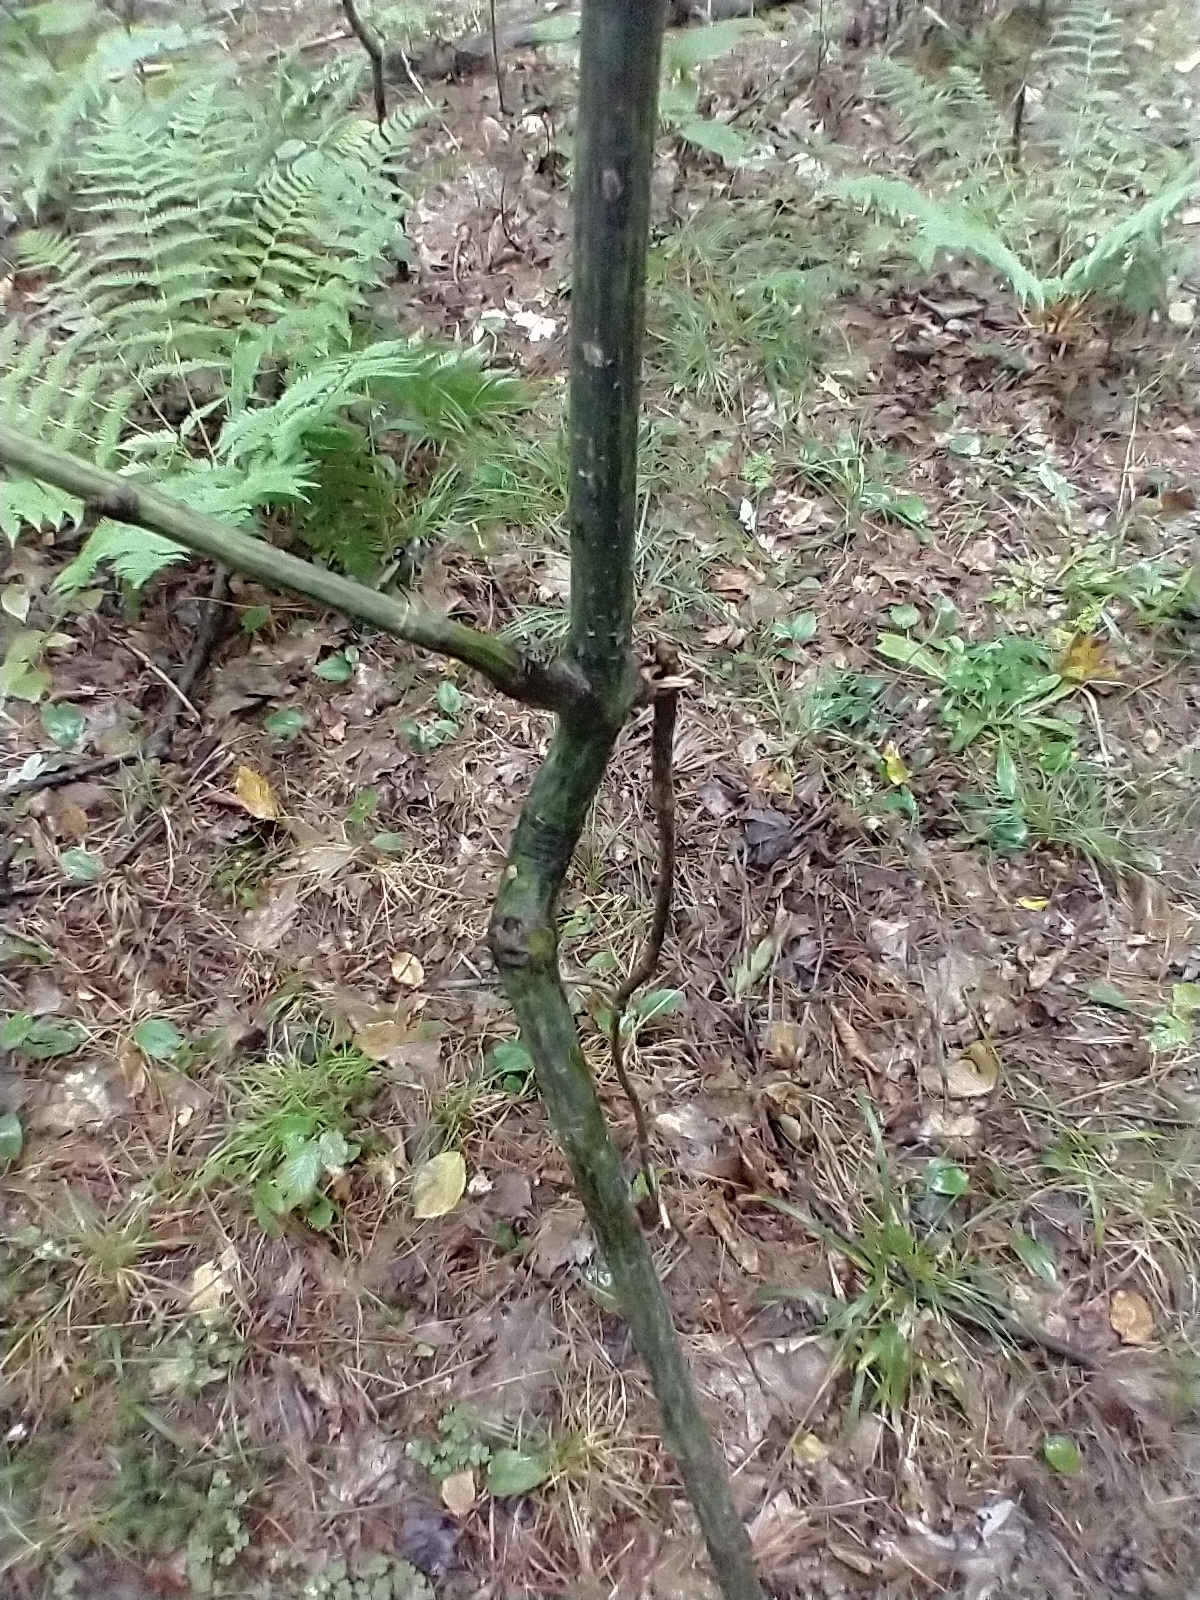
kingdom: Plantae
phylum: Tracheophyta
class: Magnoliopsida
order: Sapindales
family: Sapindaceae
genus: Acer
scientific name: Acer pensylvanicum
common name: Moosewood
